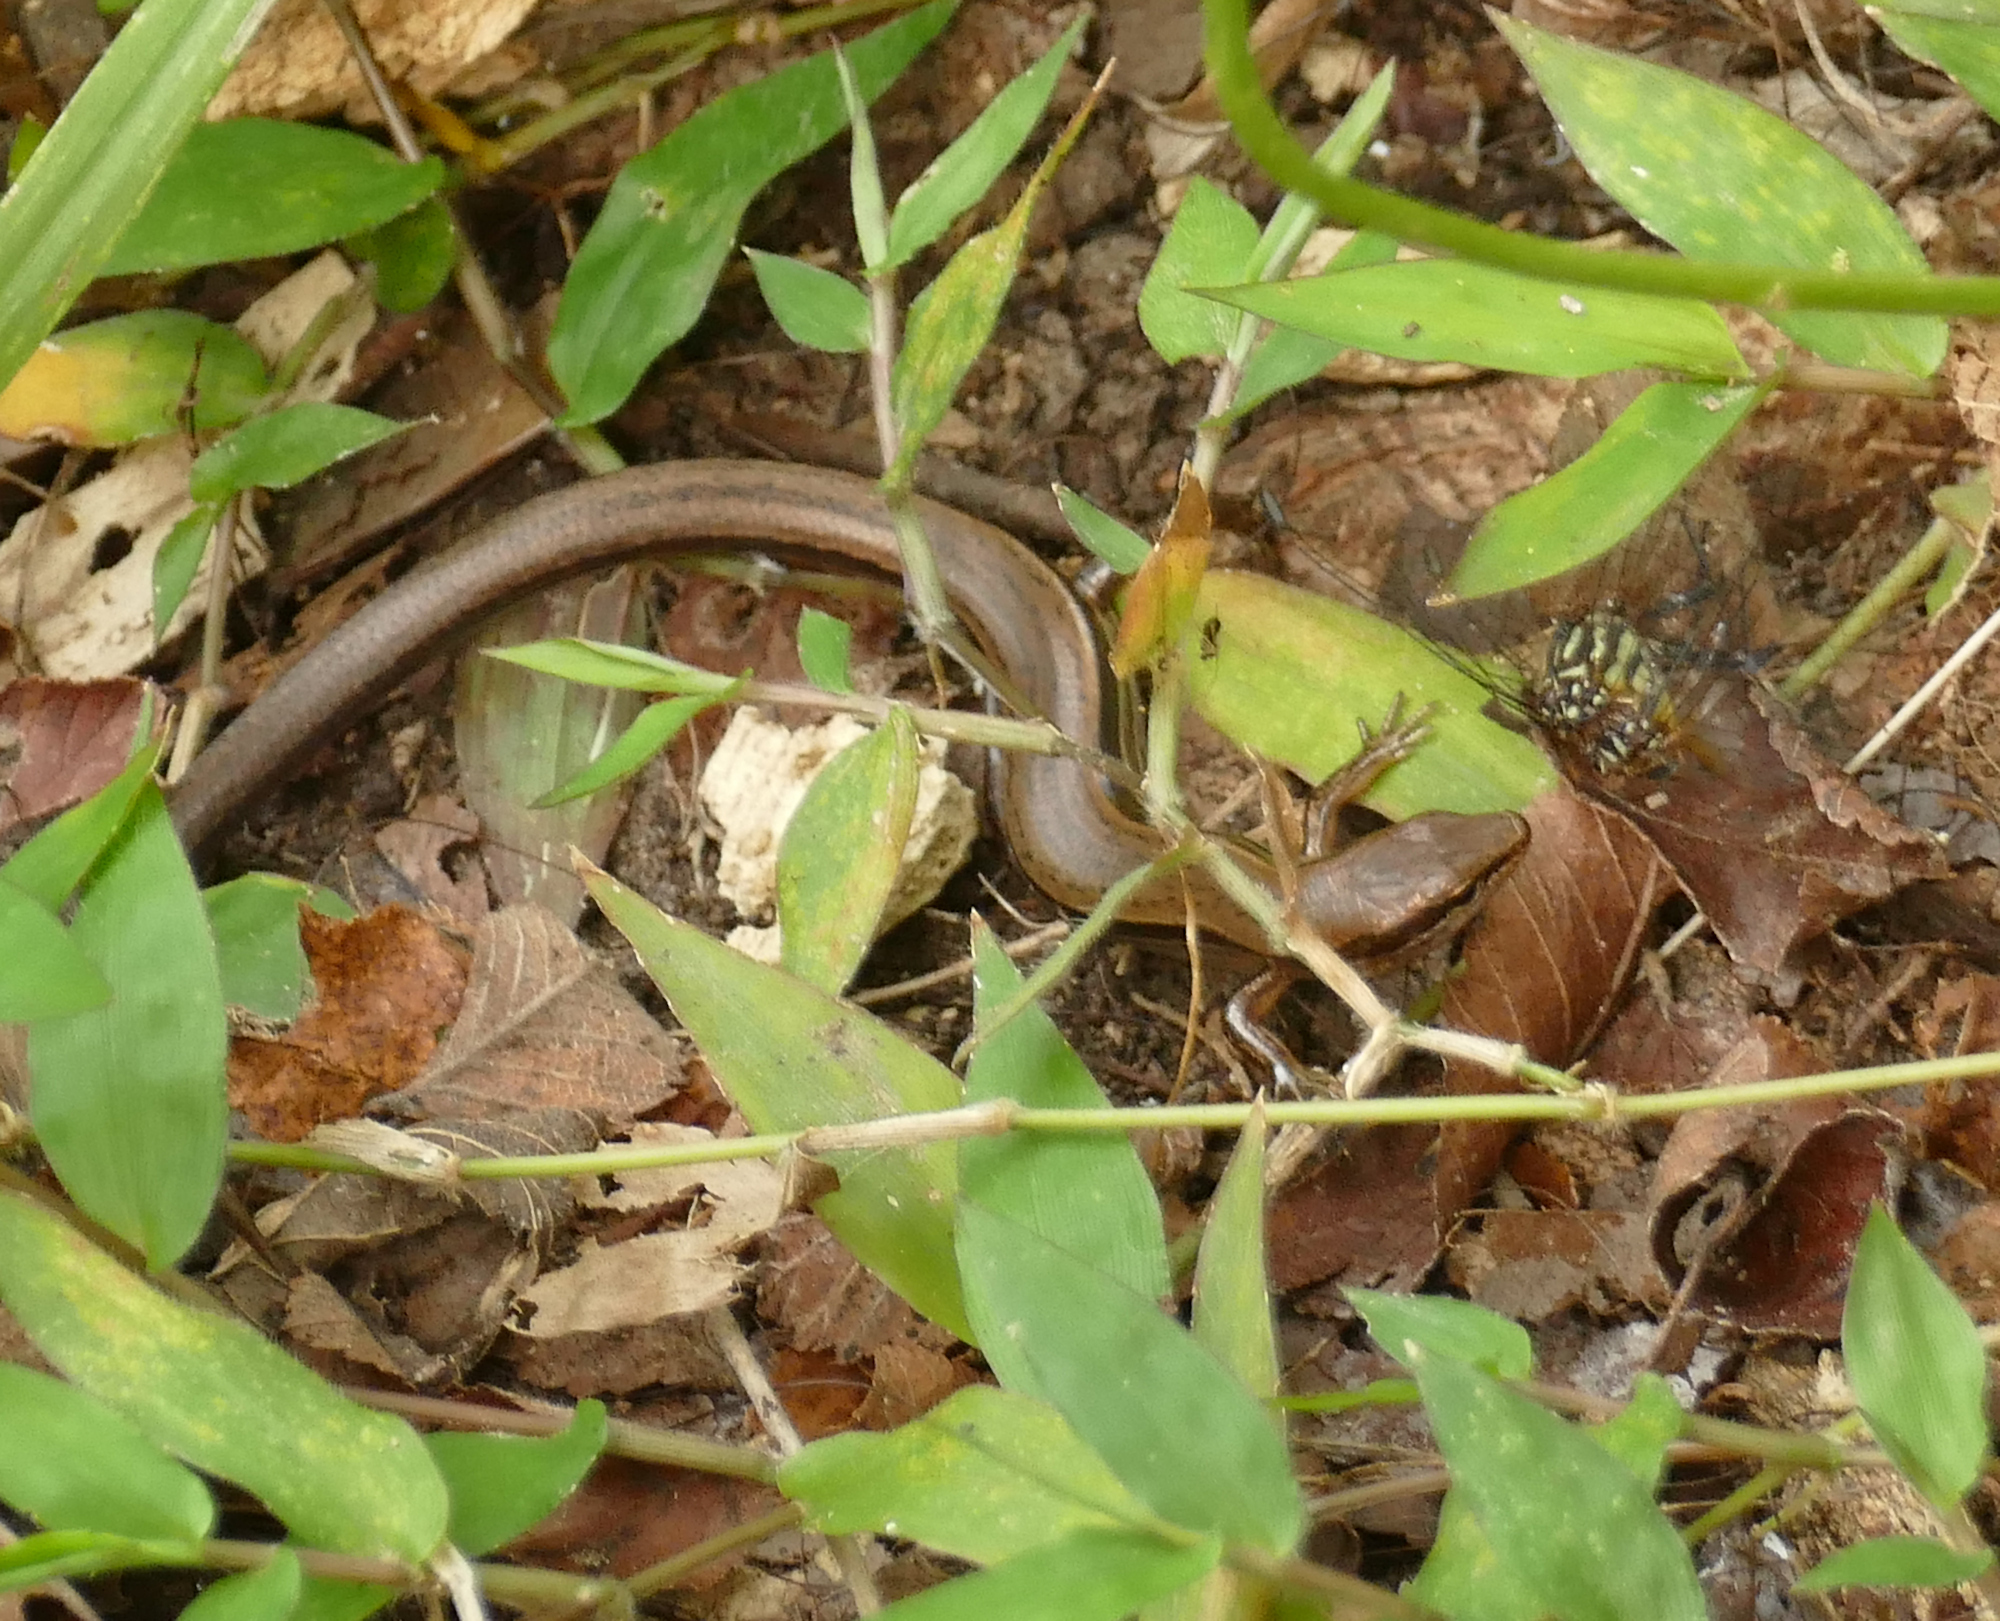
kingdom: Animalia
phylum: Chordata
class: Squamata
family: Scincidae
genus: Scincella
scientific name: Scincella lateralis
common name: Ground skink
